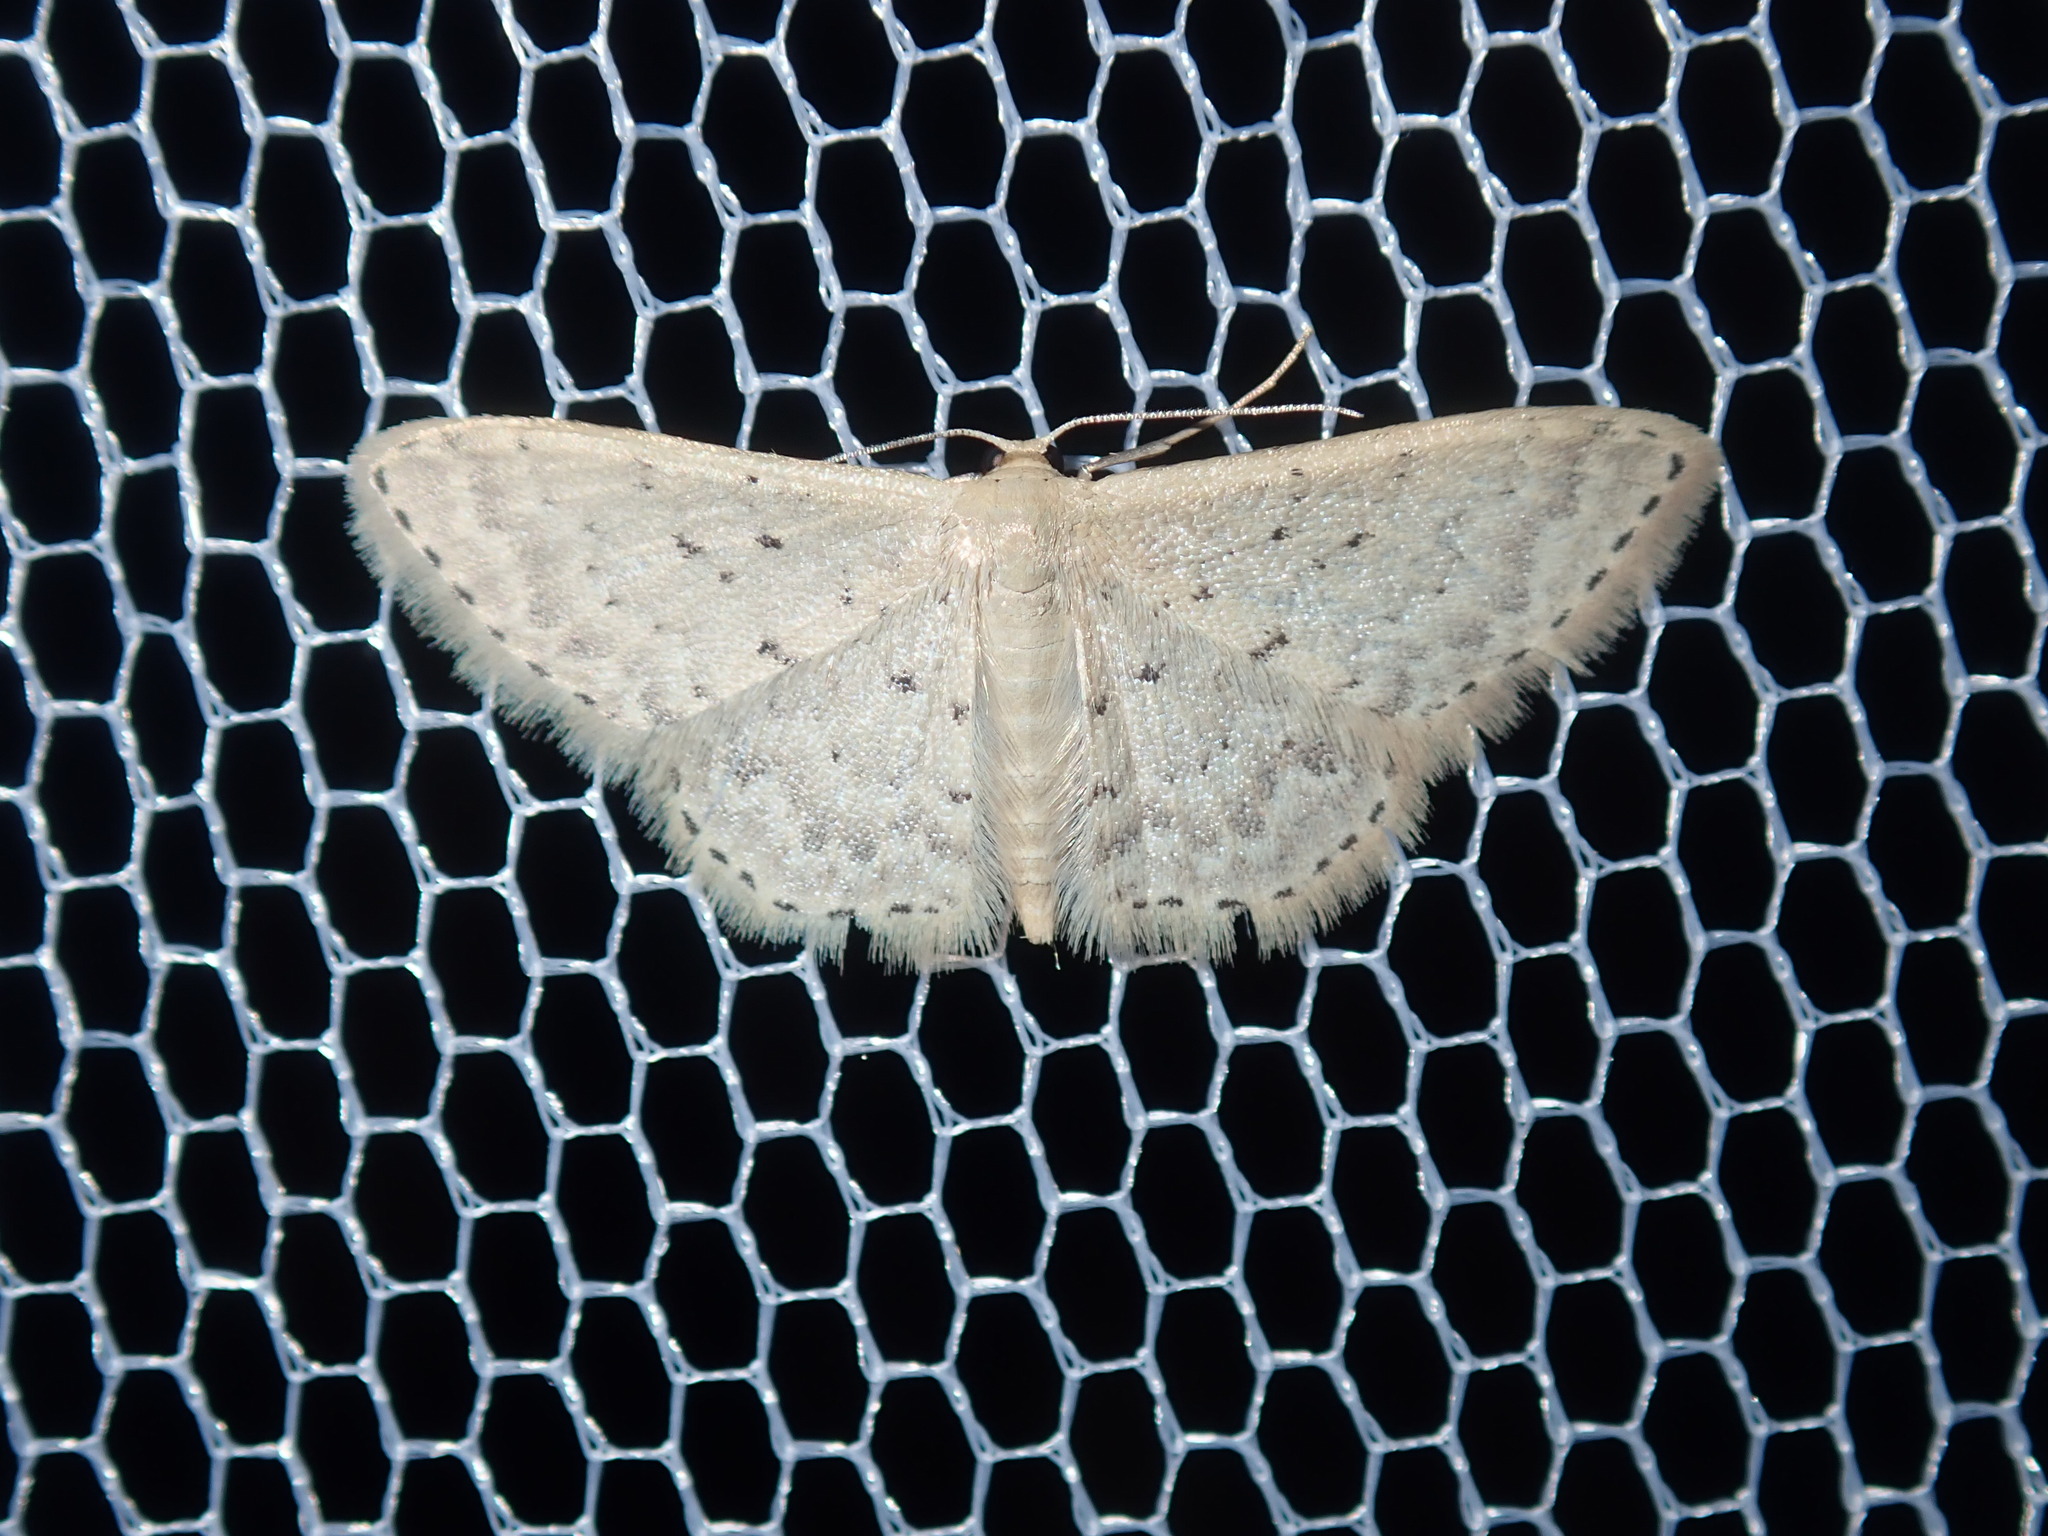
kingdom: Animalia
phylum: Arthropoda
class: Insecta
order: Lepidoptera
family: Geometridae
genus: Idaea
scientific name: Idaea philocosma
